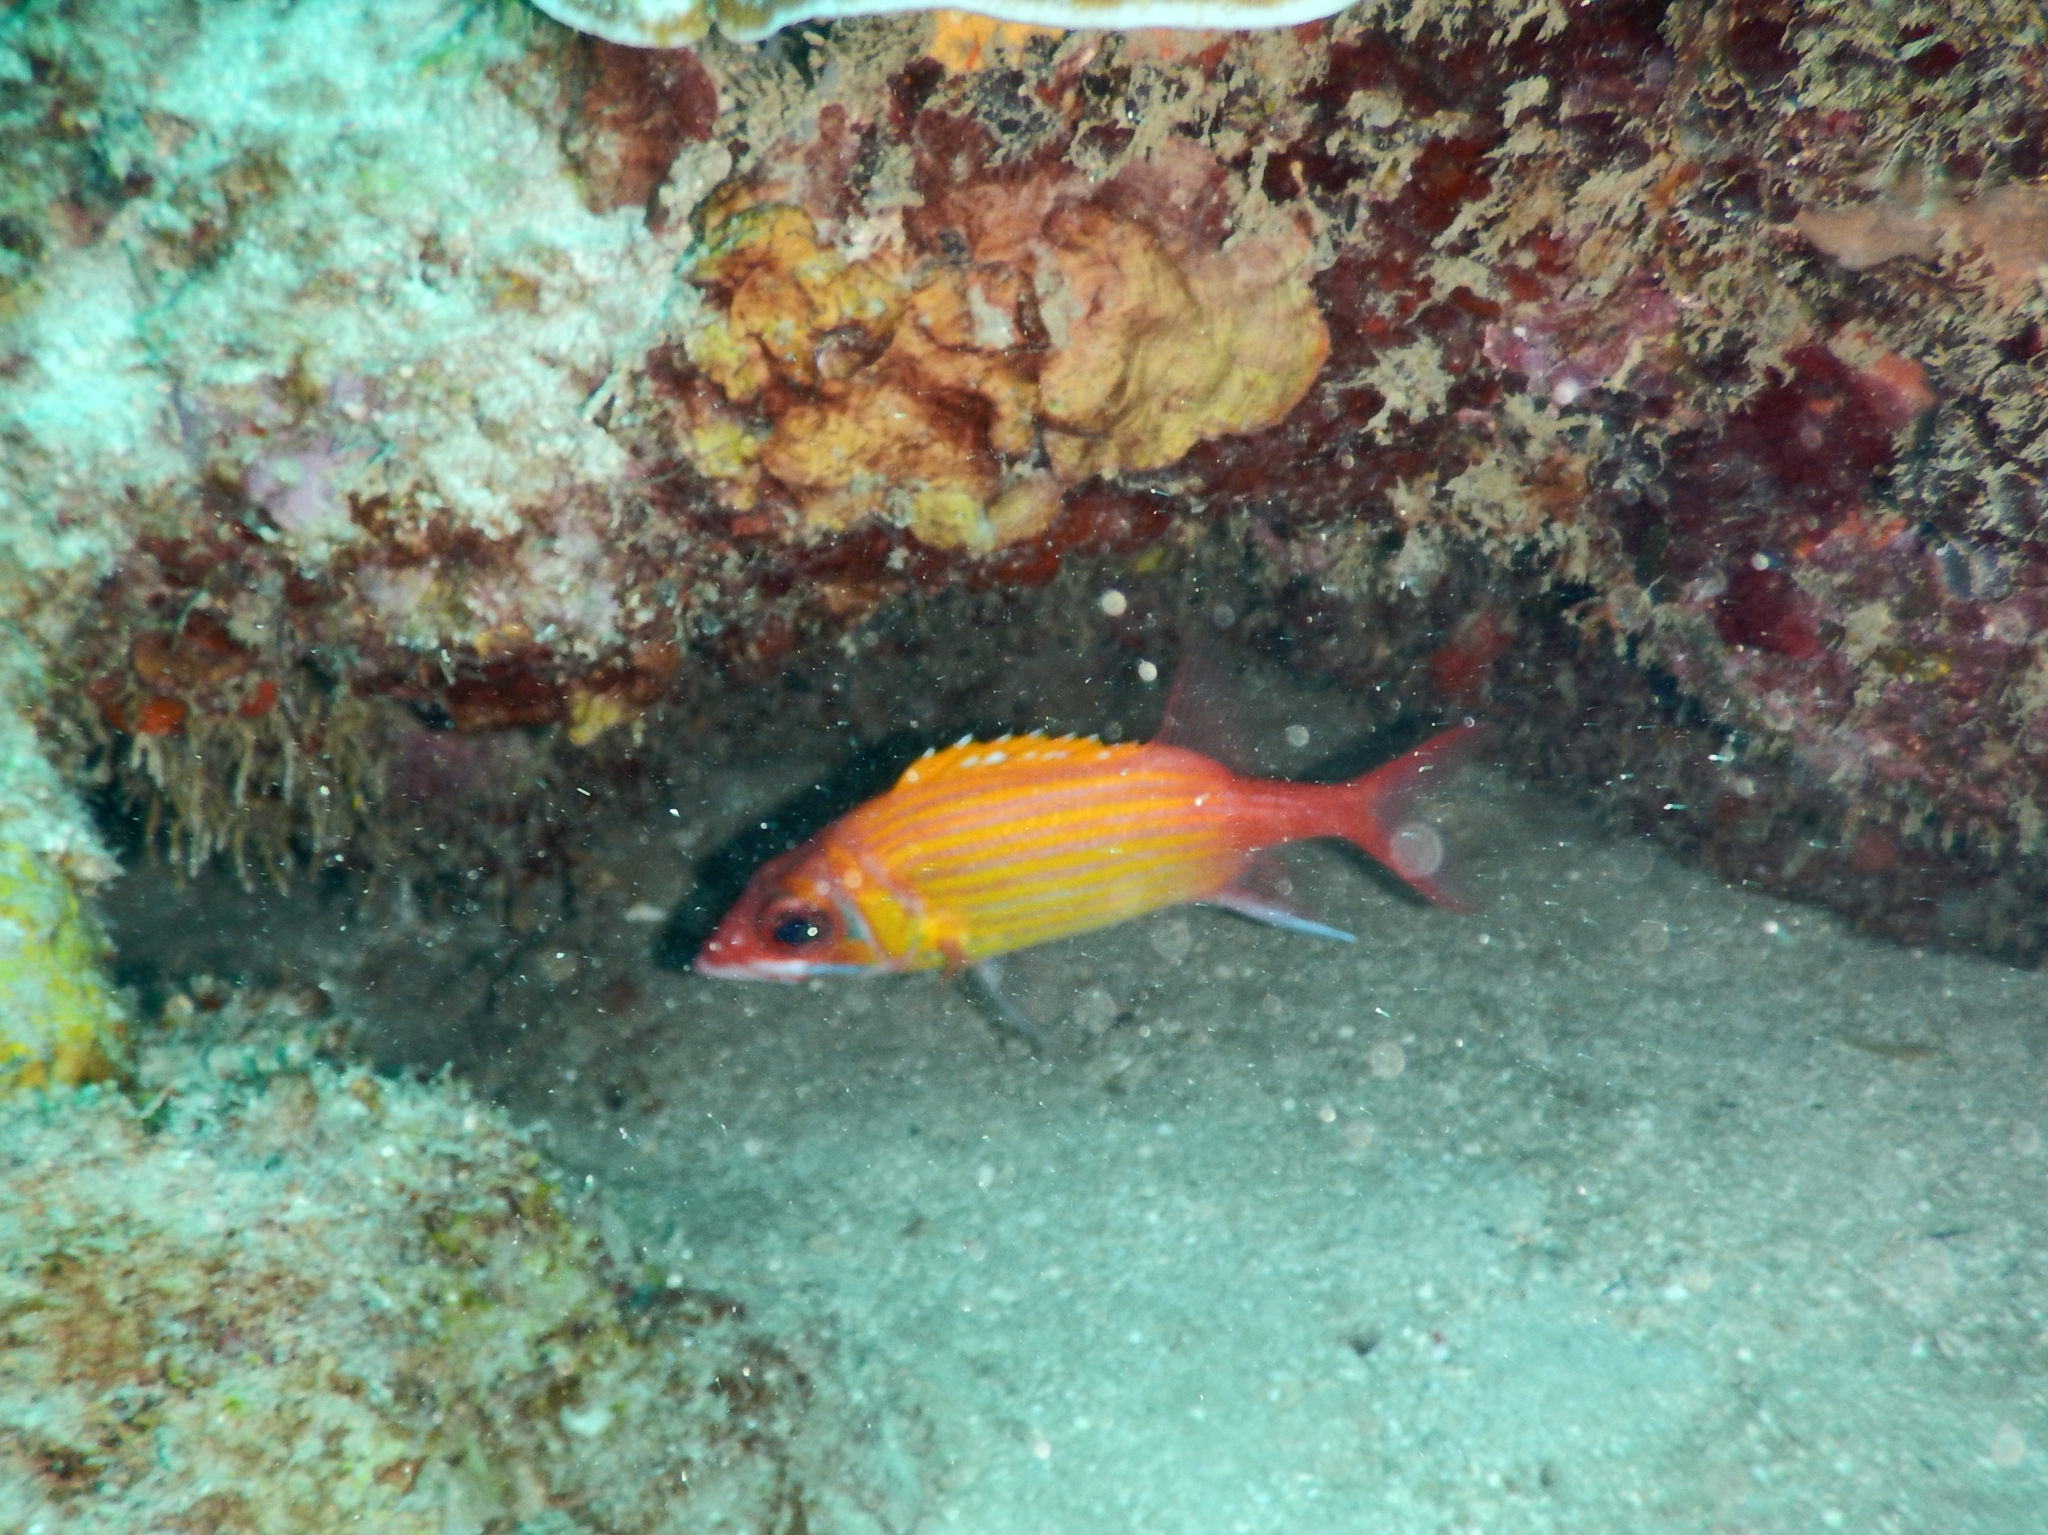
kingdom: Animalia
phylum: Chordata
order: Beryciformes
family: Holocentridae
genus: Neoniphon
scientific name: Neoniphon marianus
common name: Longjaw squirrelfish
